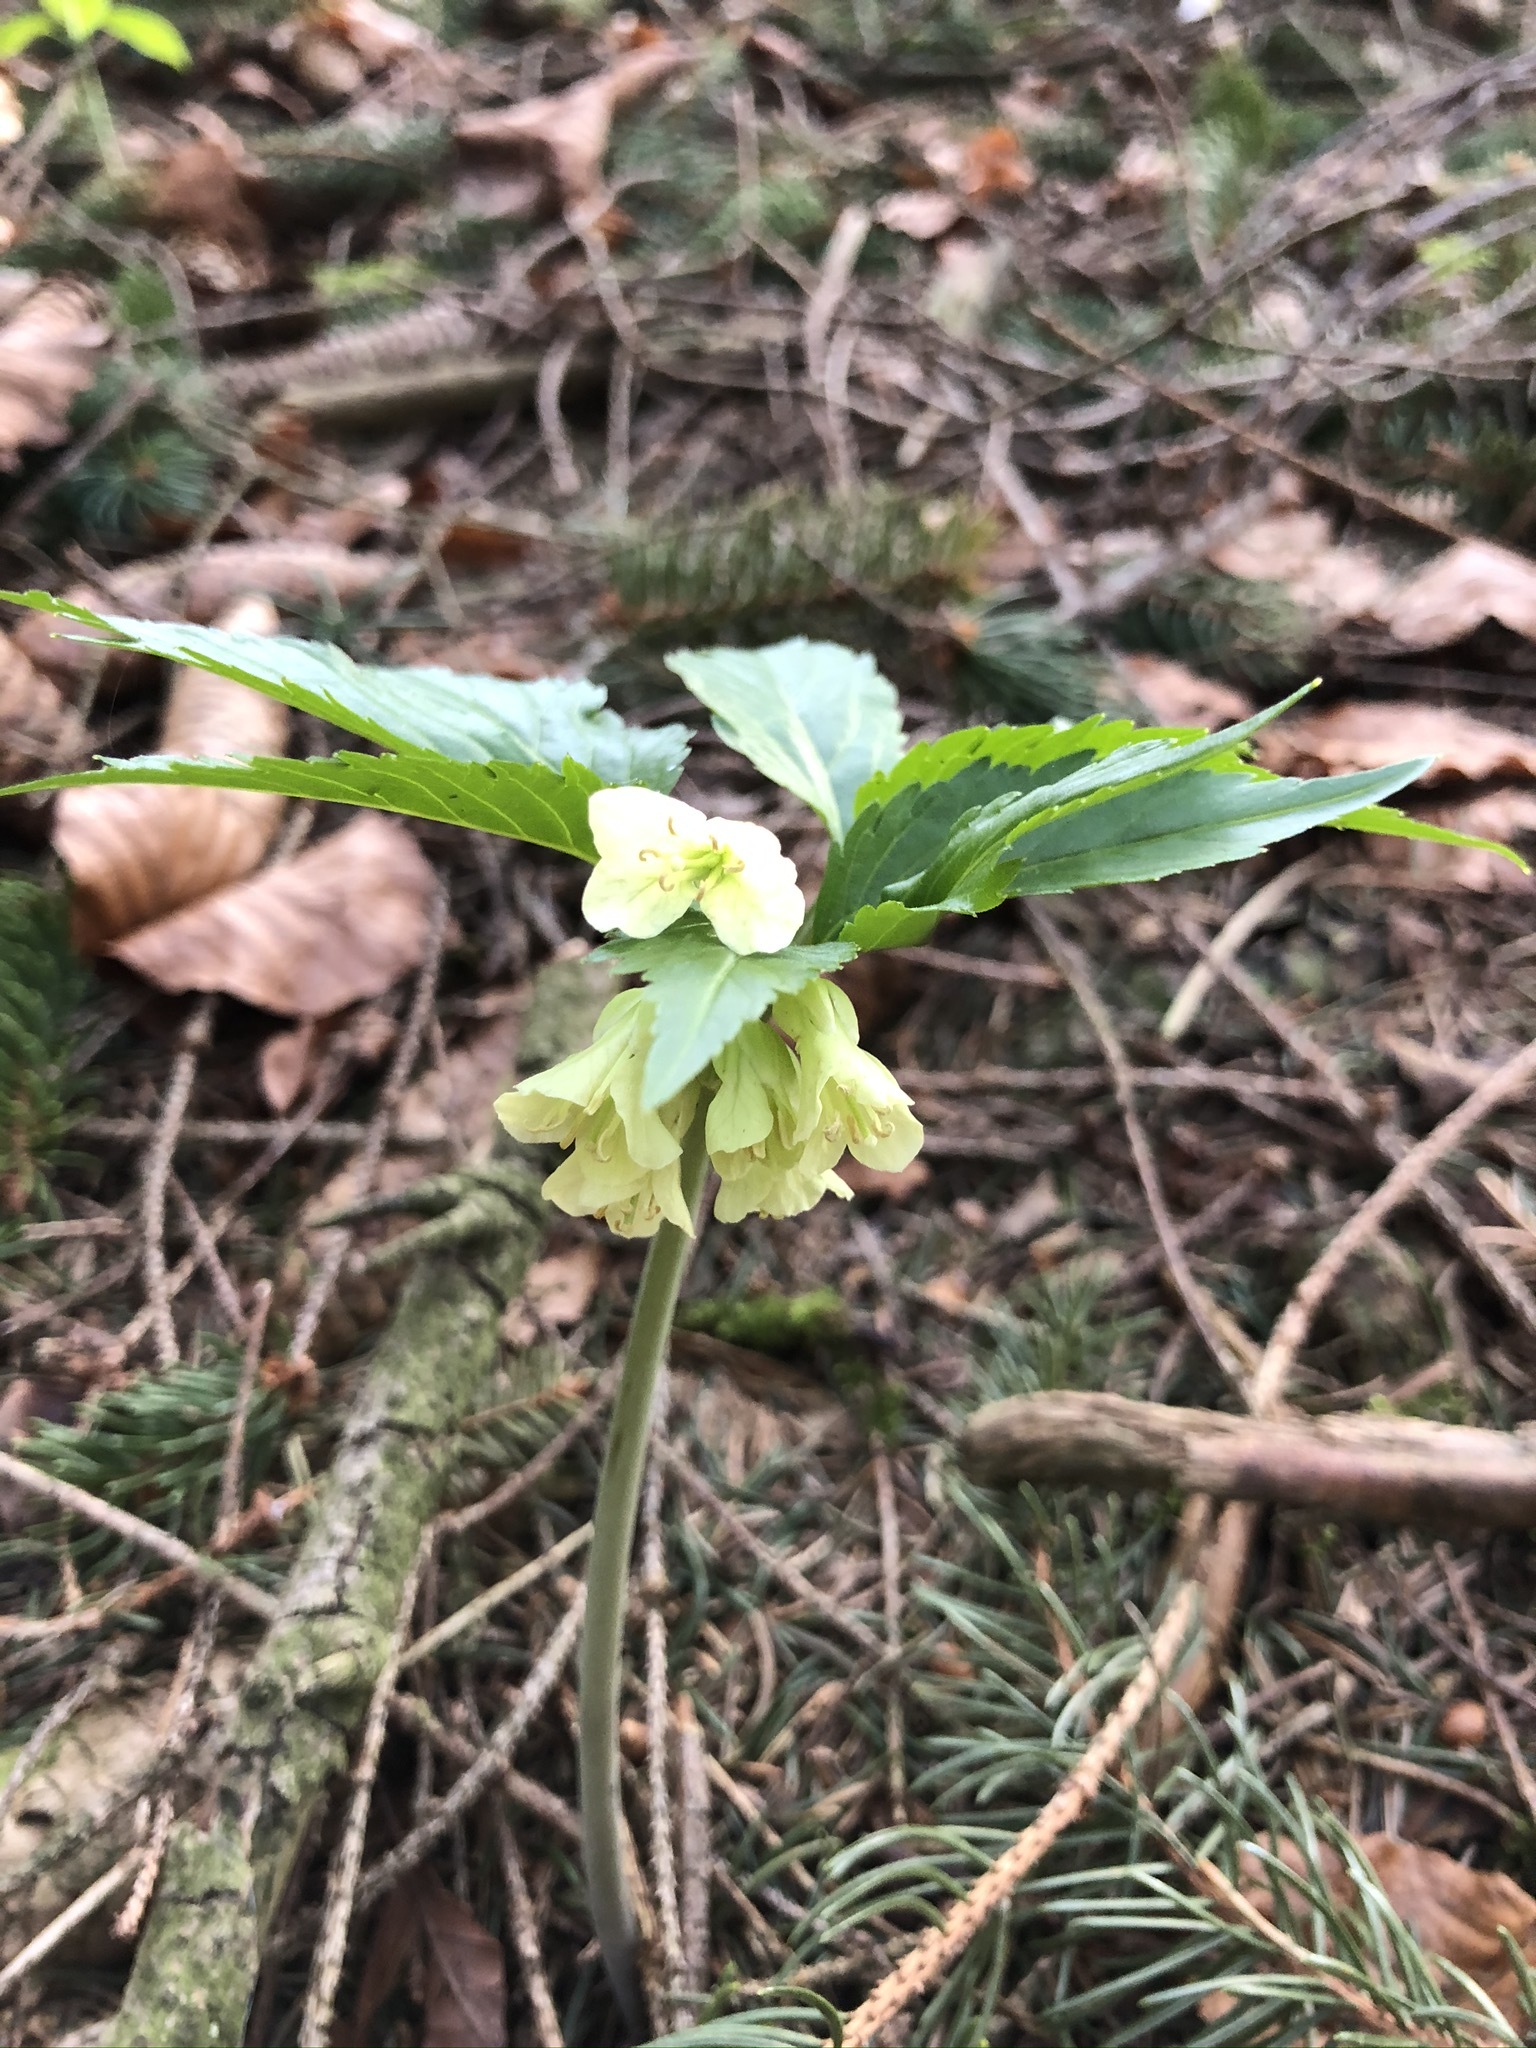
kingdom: Plantae
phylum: Tracheophyta
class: Magnoliopsida
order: Brassicales
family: Brassicaceae
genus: Cardamine
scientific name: Cardamine enneaphyllos
